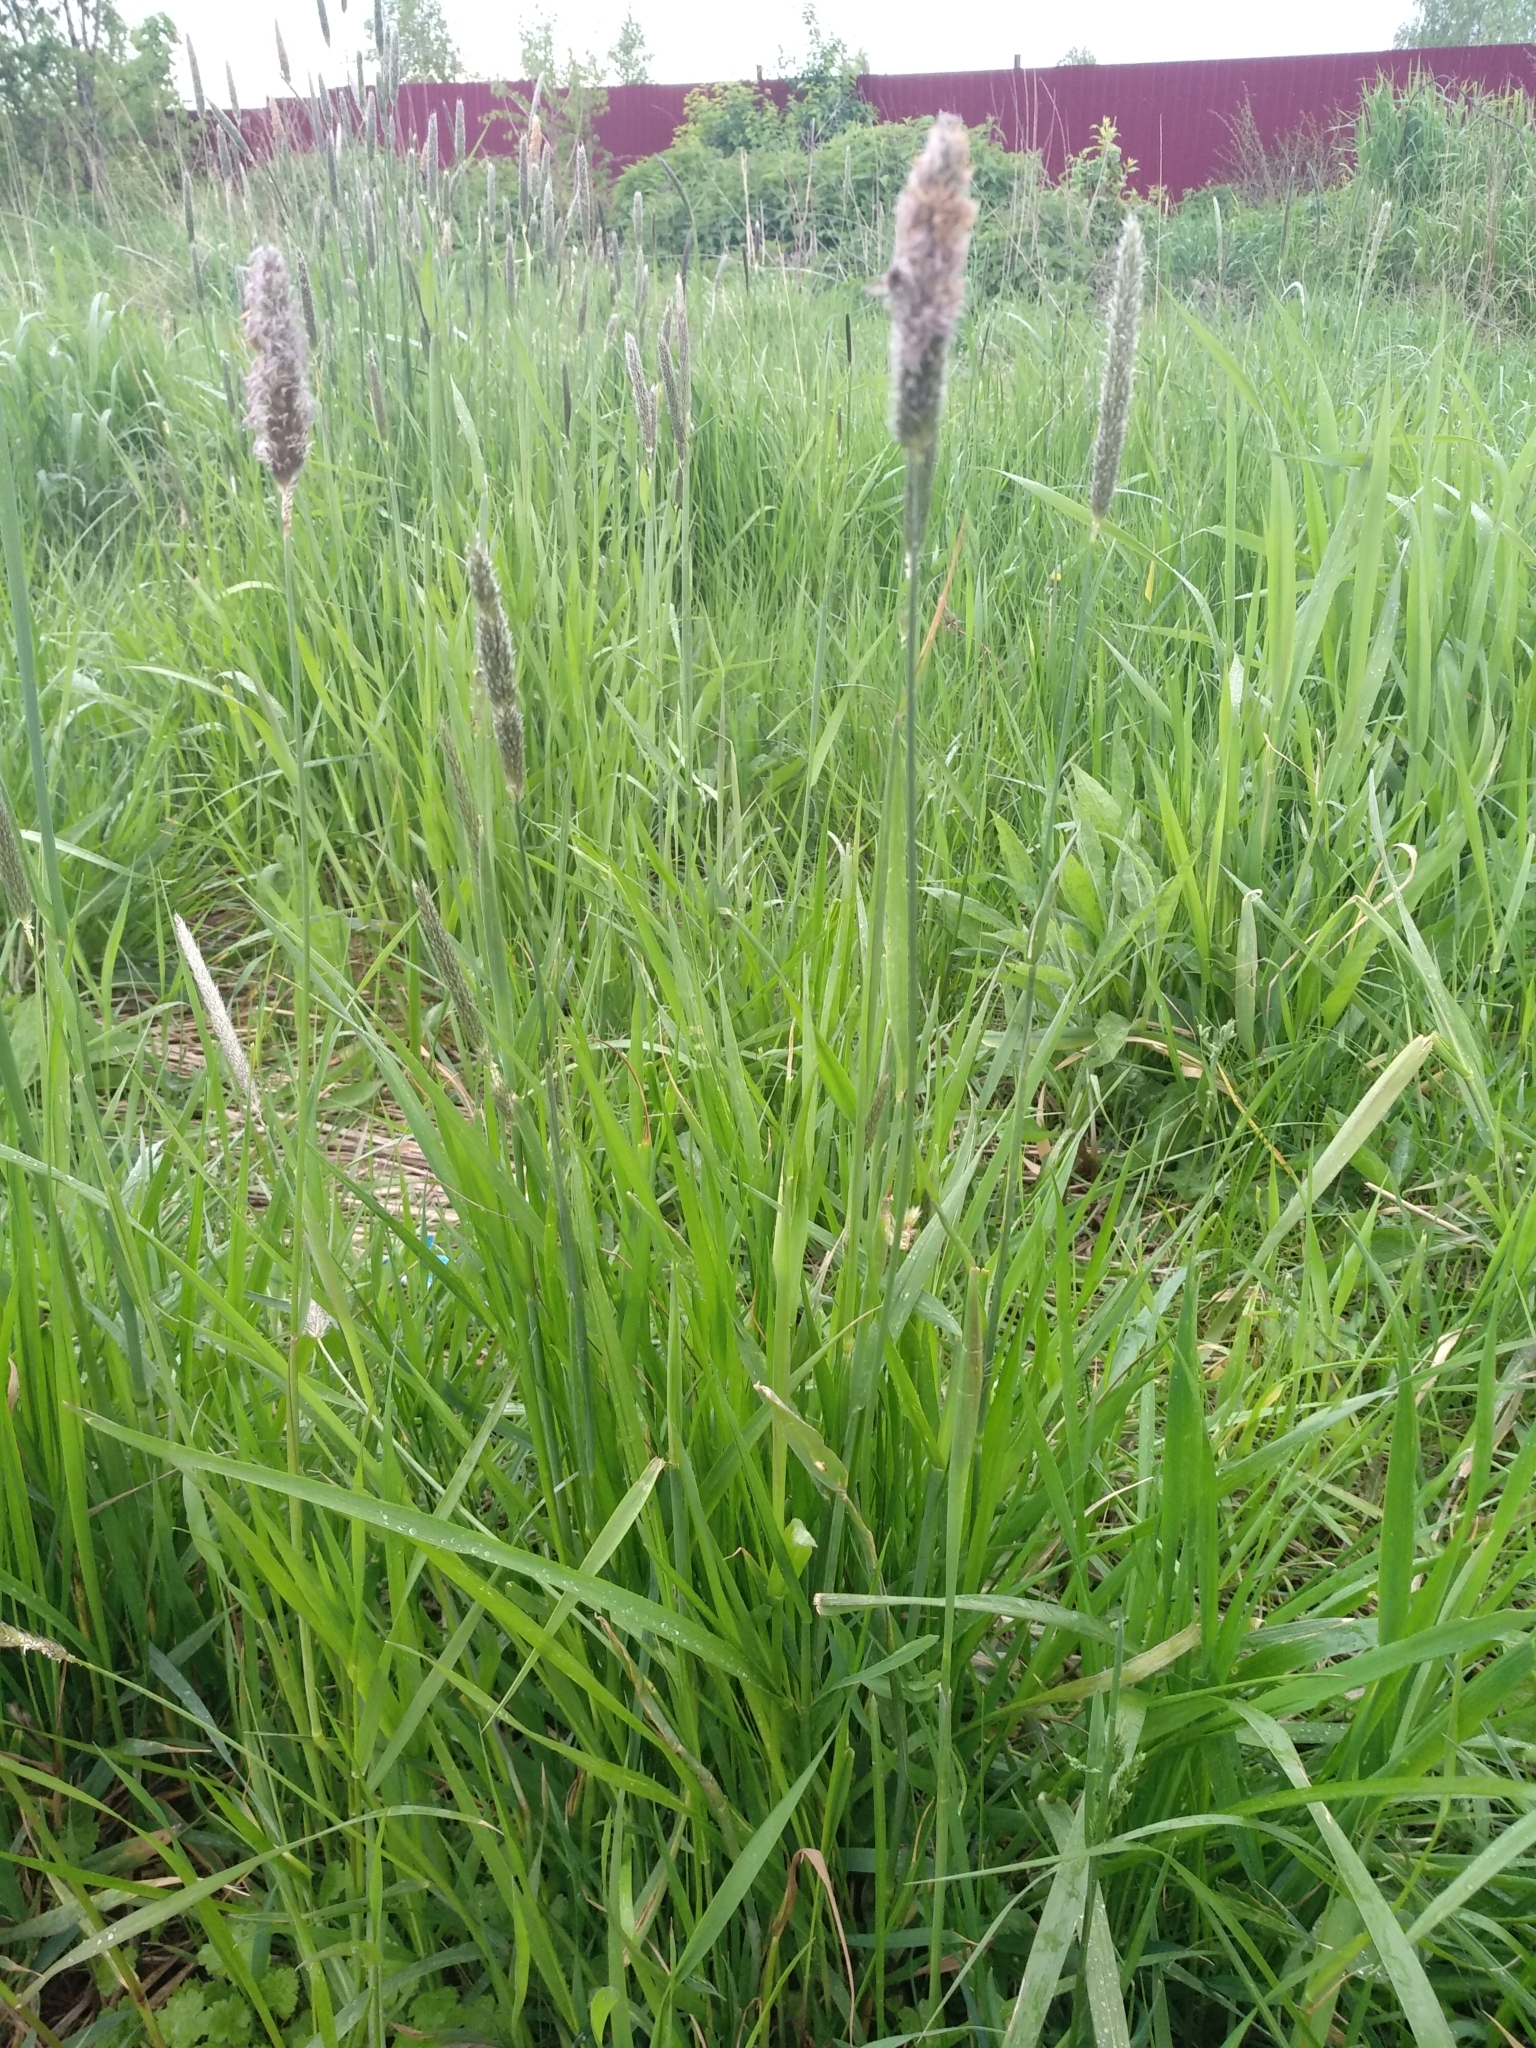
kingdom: Plantae
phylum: Tracheophyta
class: Liliopsida
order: Poales
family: Poaceae
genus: Alopecurus
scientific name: Alopecurus pratensis
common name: Meadow foxtail
